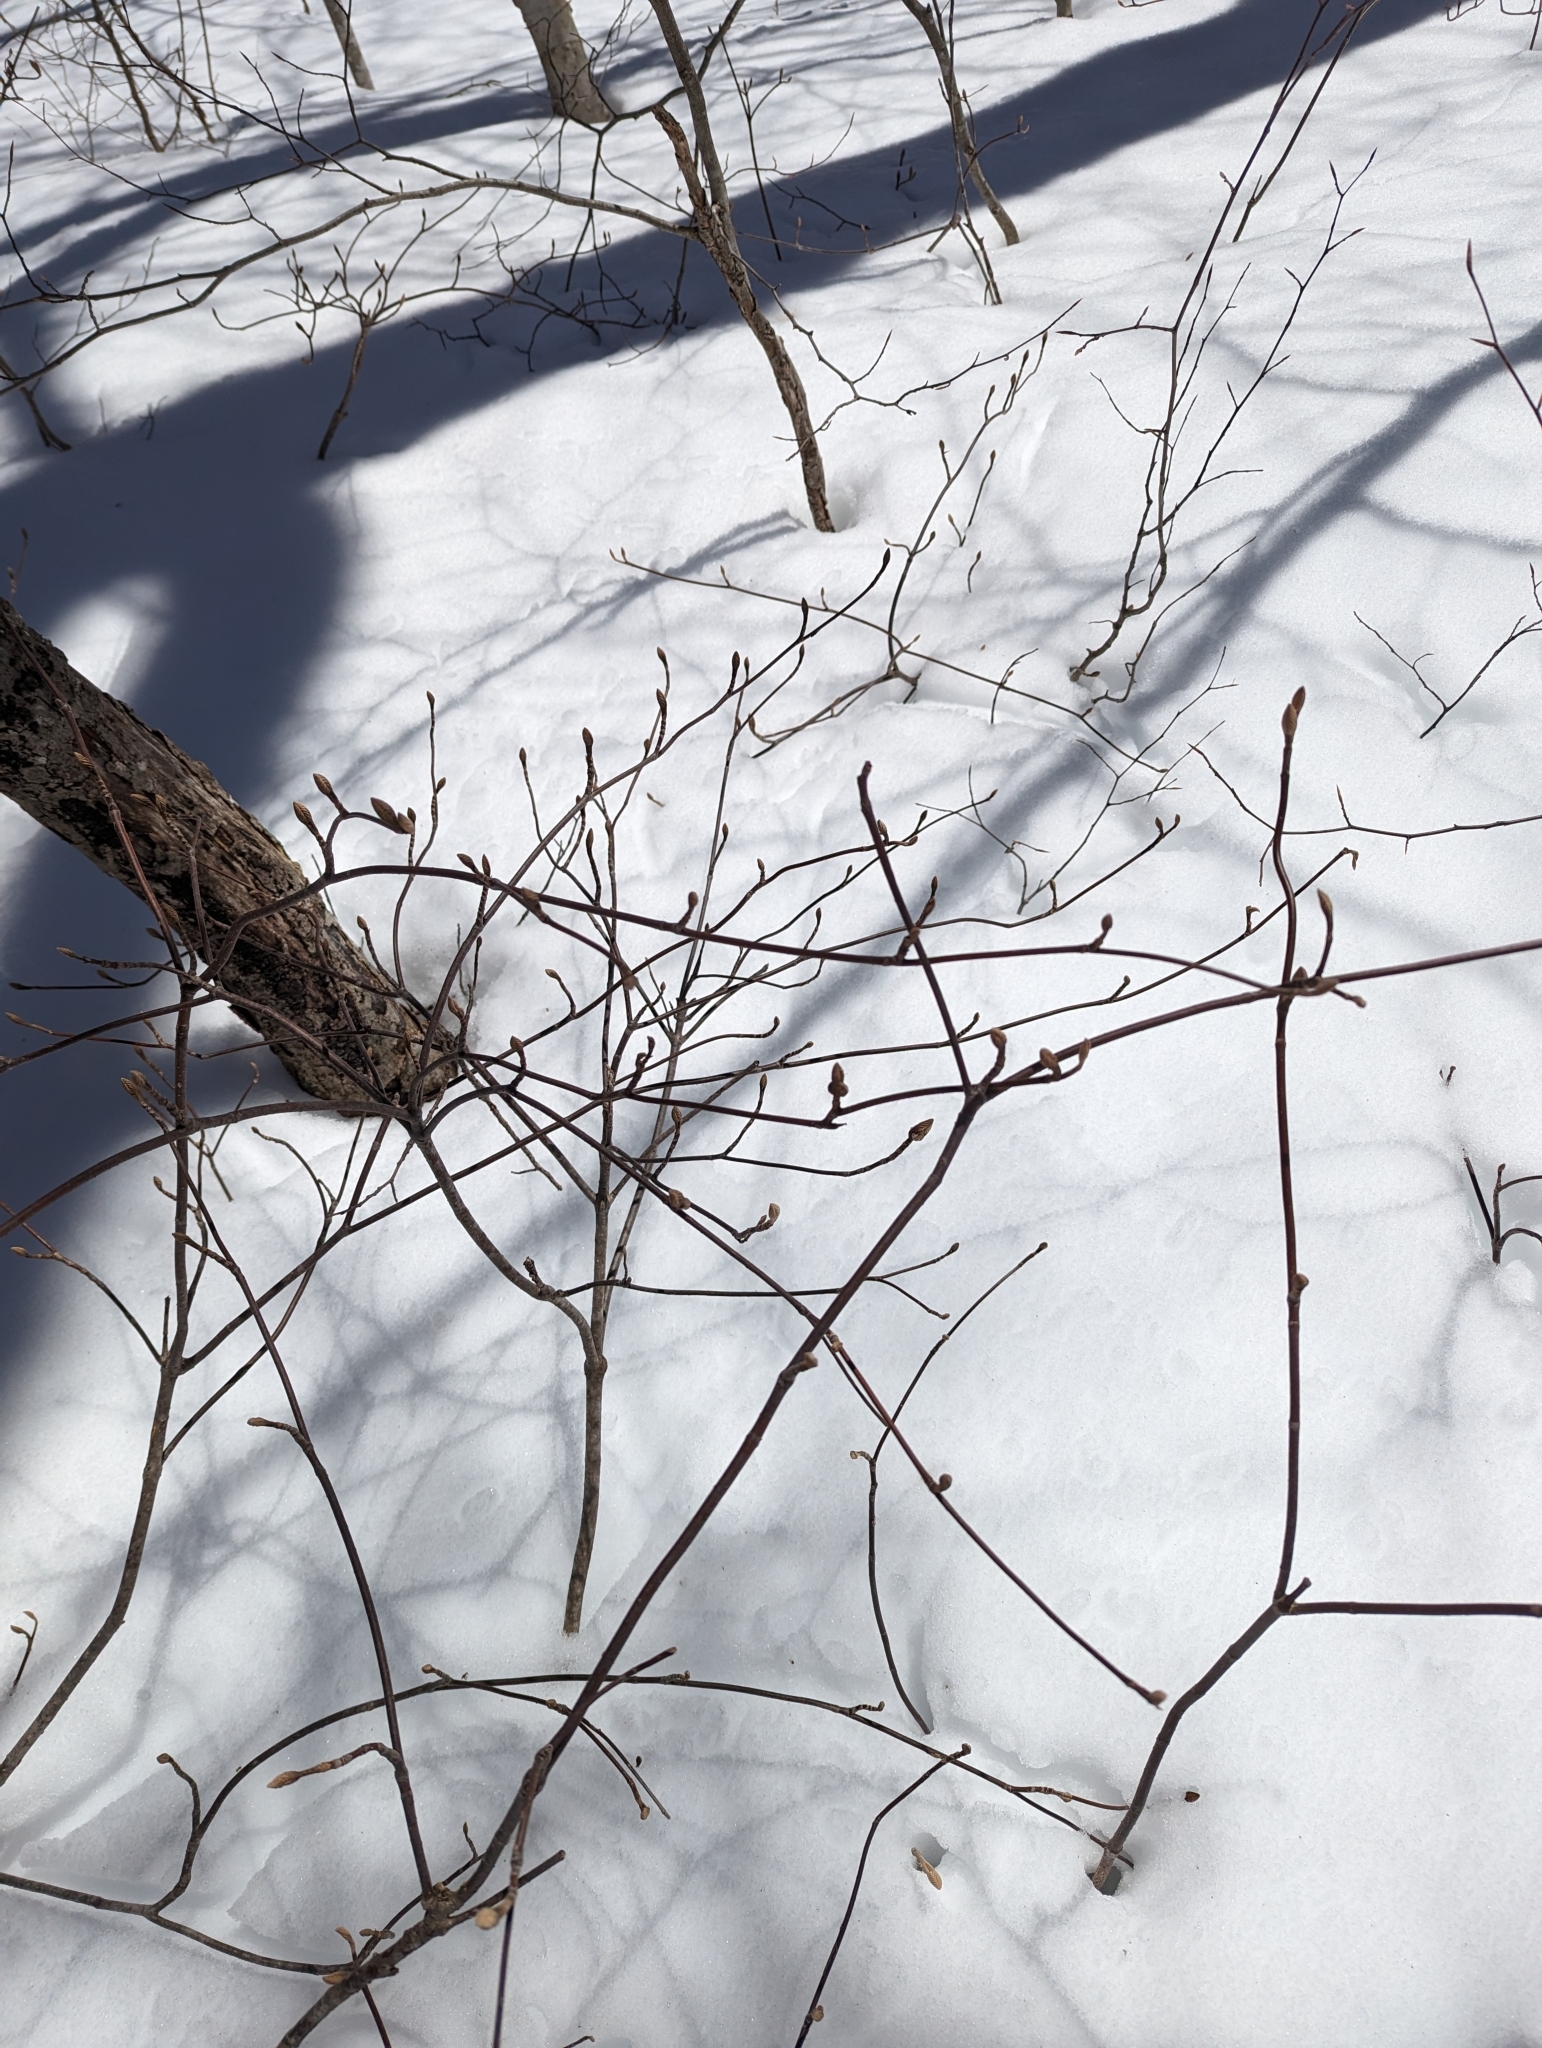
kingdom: Plantae
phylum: Tracheophyta
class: Magnoliopsida
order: Dipsacales
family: Viburnaceae
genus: Viburnum
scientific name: Viburnum lantanoides
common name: Hobblebush
